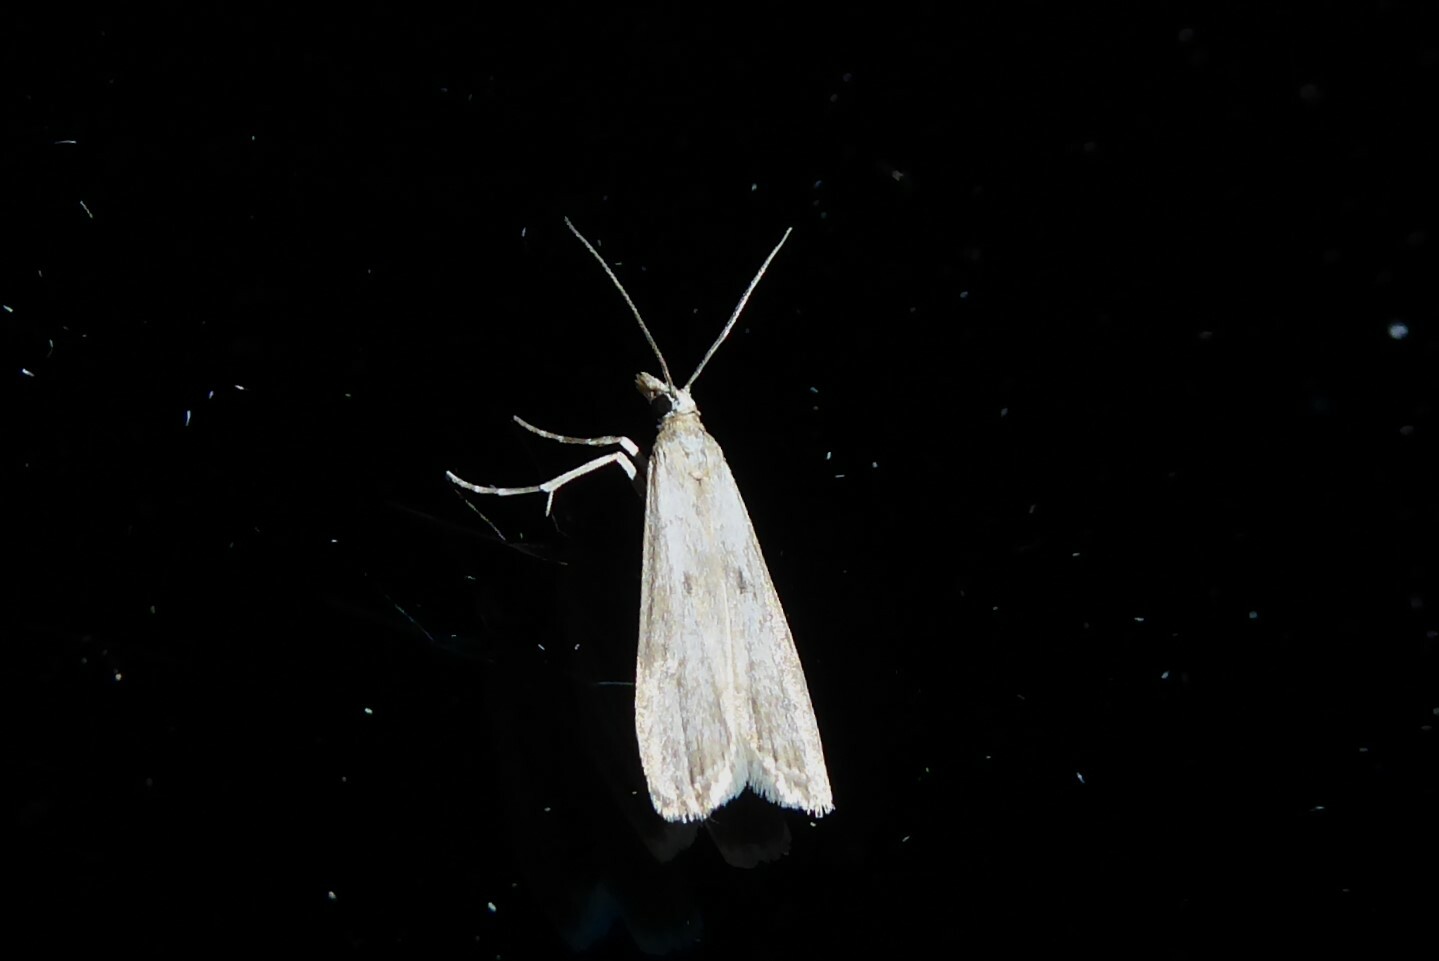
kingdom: Animalia
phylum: Arthropoda
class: Insecta
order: Lepidoptera
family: Crambidae
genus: Eudonia
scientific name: Eudonia leptalea
